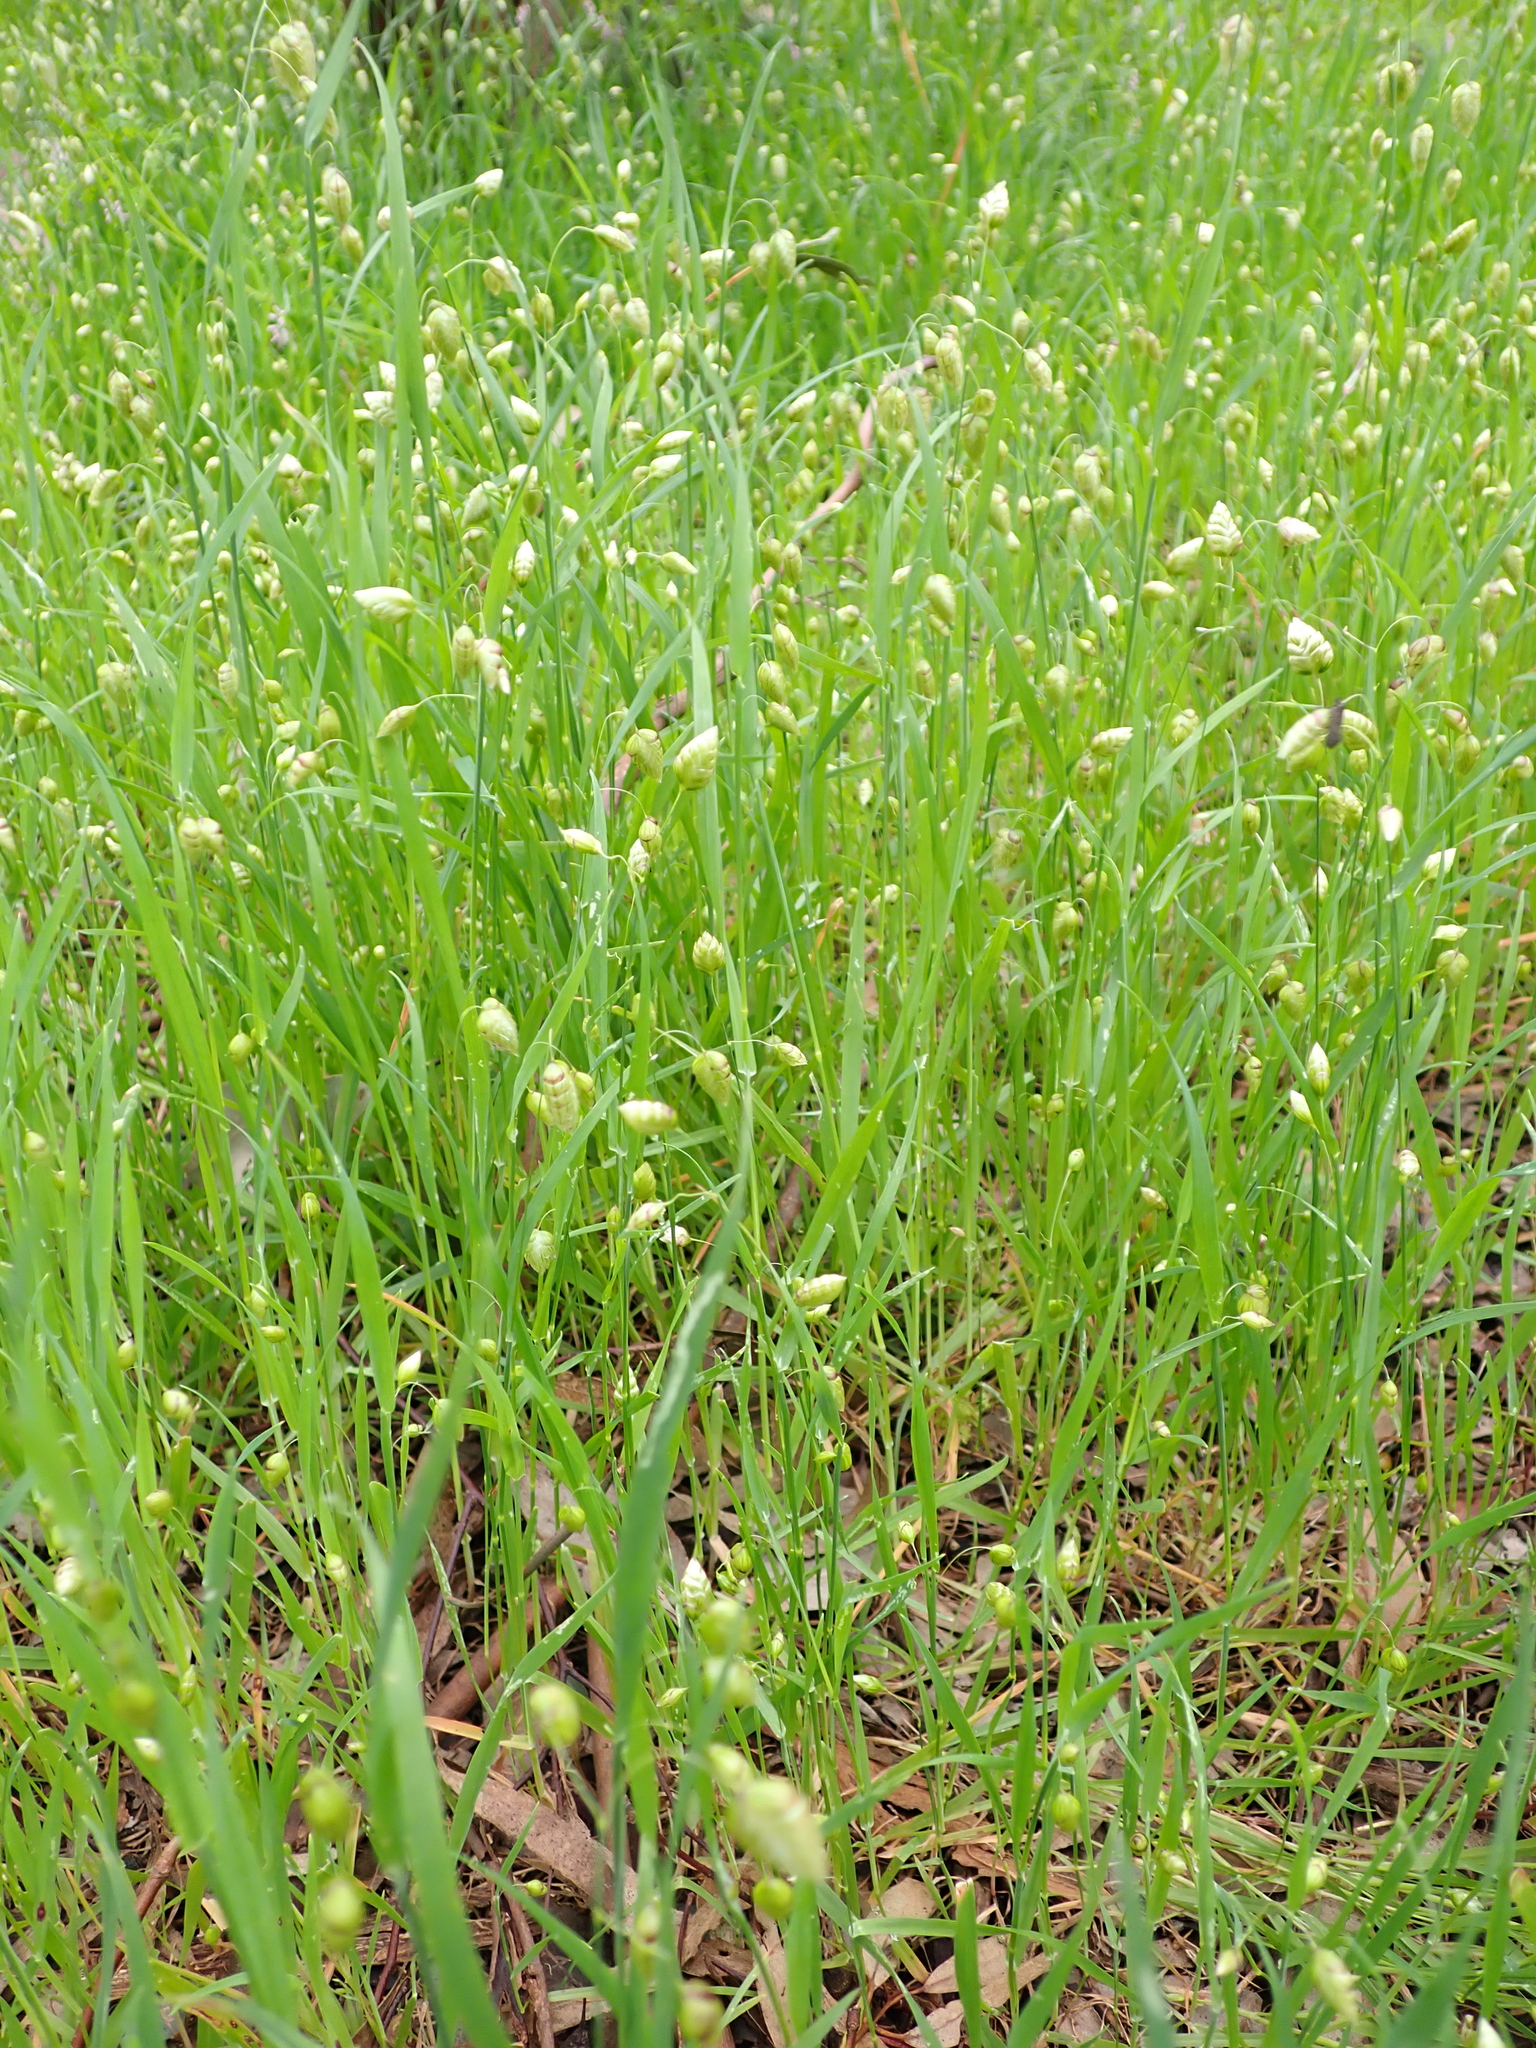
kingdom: Plantae
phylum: Tracheophyta
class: Liliopsida
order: Poales
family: Poaceae
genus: Briza
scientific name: Briza maxima
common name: Big quakinggrass
